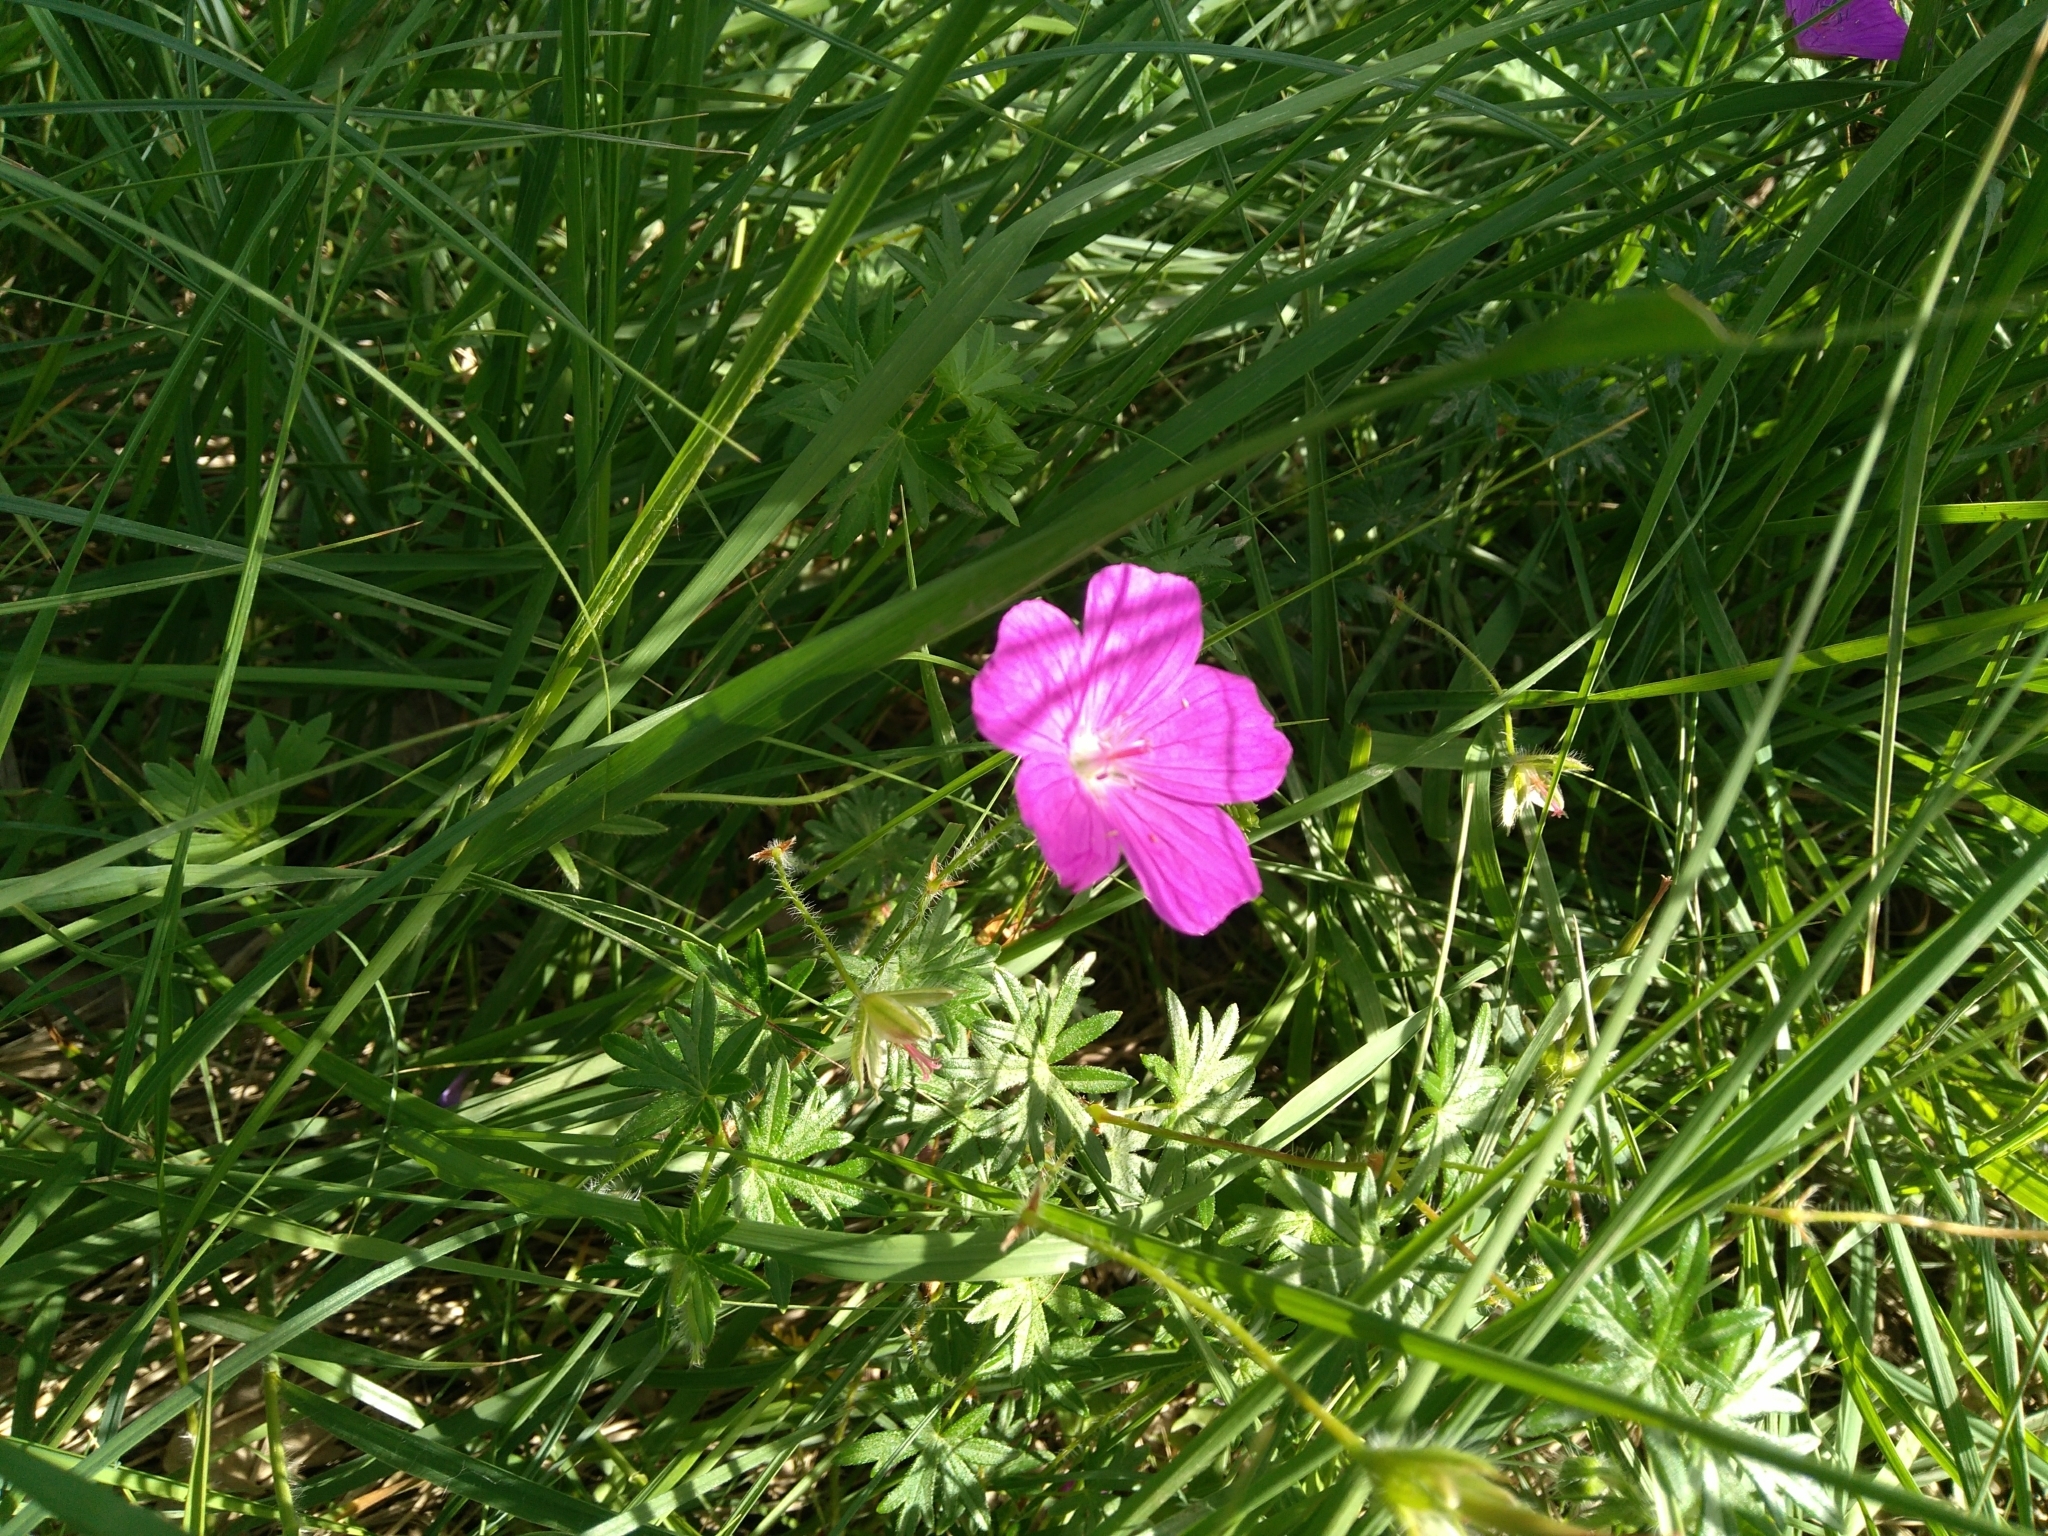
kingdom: Plantae
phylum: Tracheophyta
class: Magnoliopsida
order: Geraniales
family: Geraniaceae
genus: Geranium
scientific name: Geranium sanguineum
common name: Bloody crane's-bill
